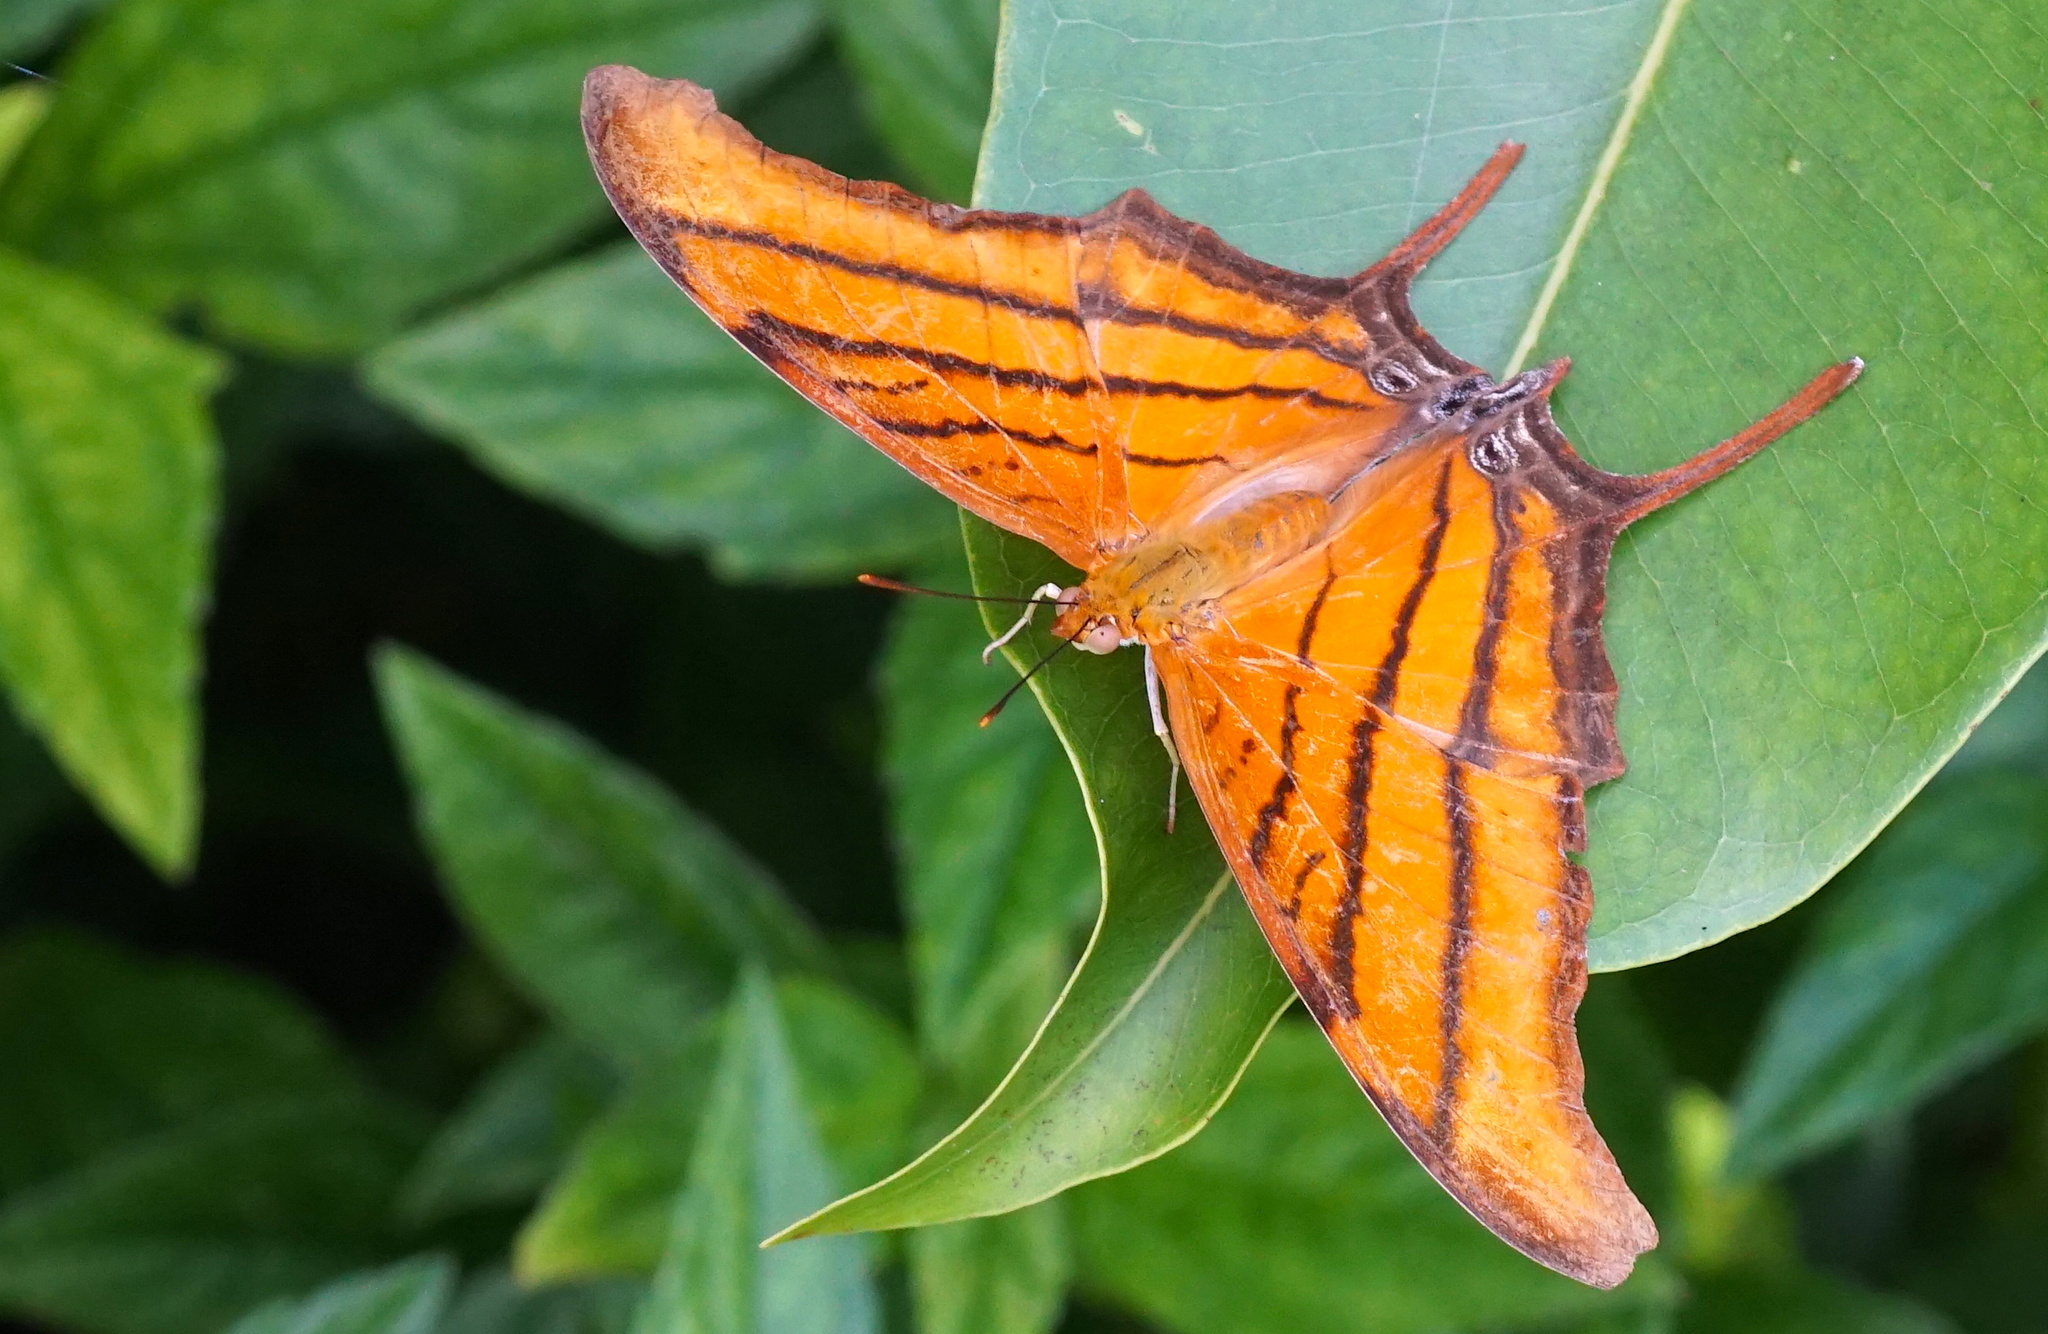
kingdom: Animalia
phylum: Arthropoda
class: Insecta
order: Lepidoptera
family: Nymphalidae
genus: Marpesia
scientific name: Marpesia petreus
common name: Red dagger wing
